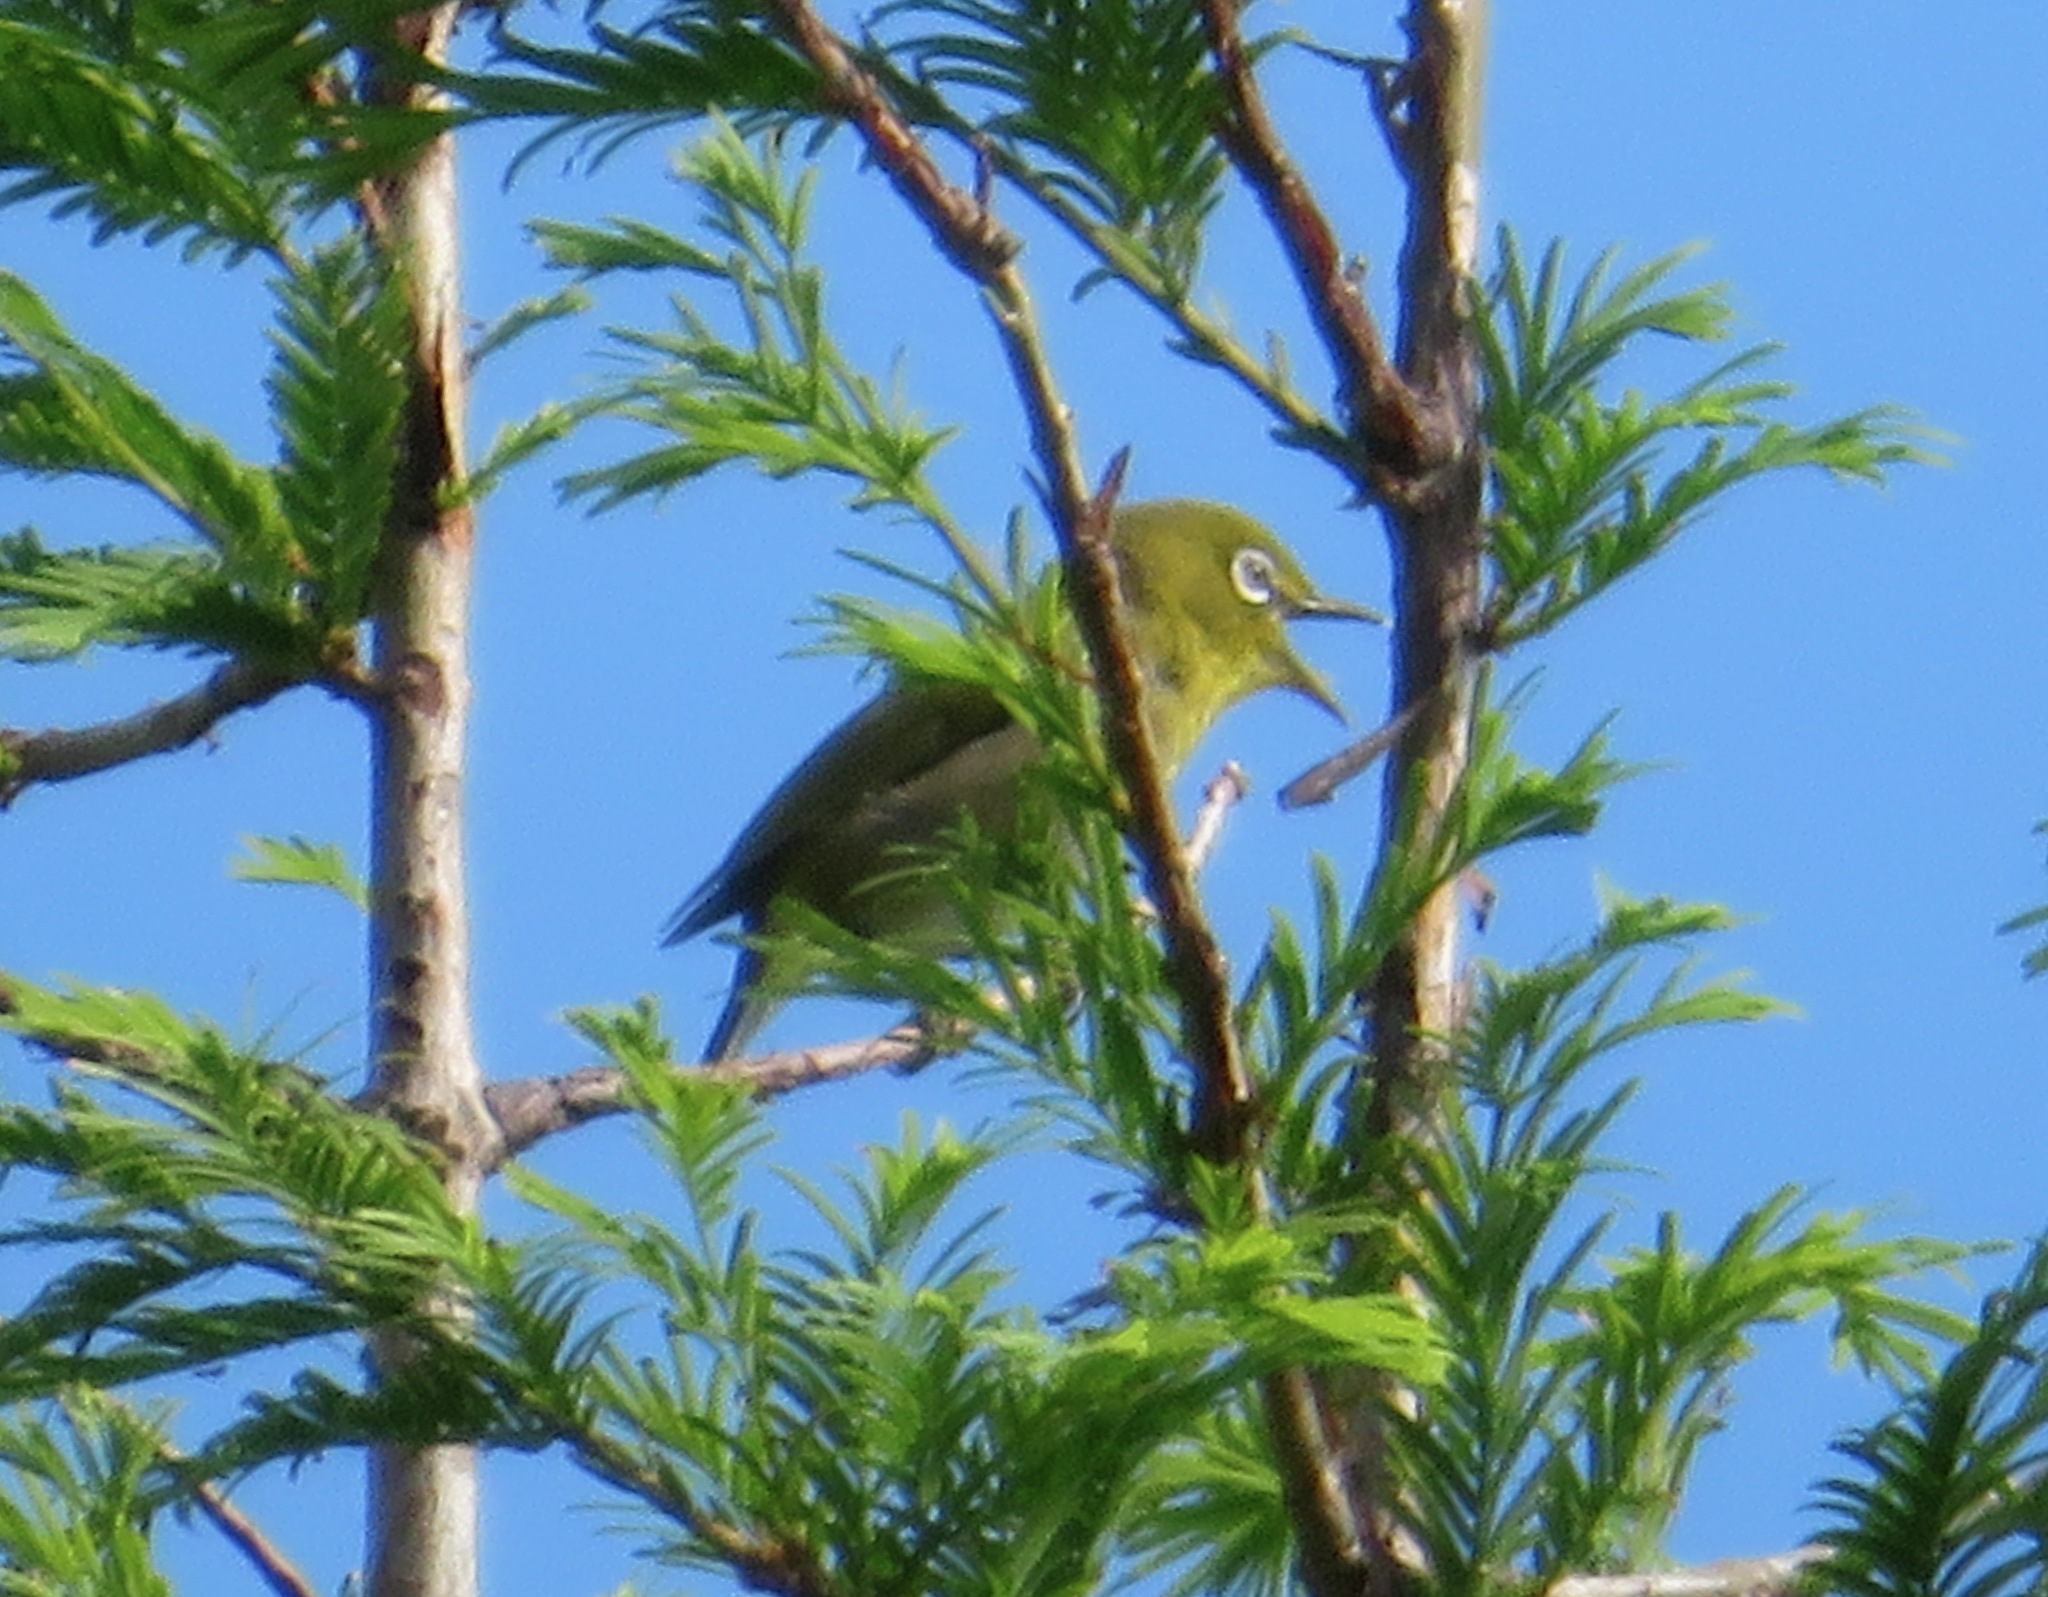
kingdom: Animalia
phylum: Chordata
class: Aves
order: Passeriformes
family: Zosteropidae
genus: Zosterops
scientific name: Zosterops japonicus
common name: Japanese white-eye
